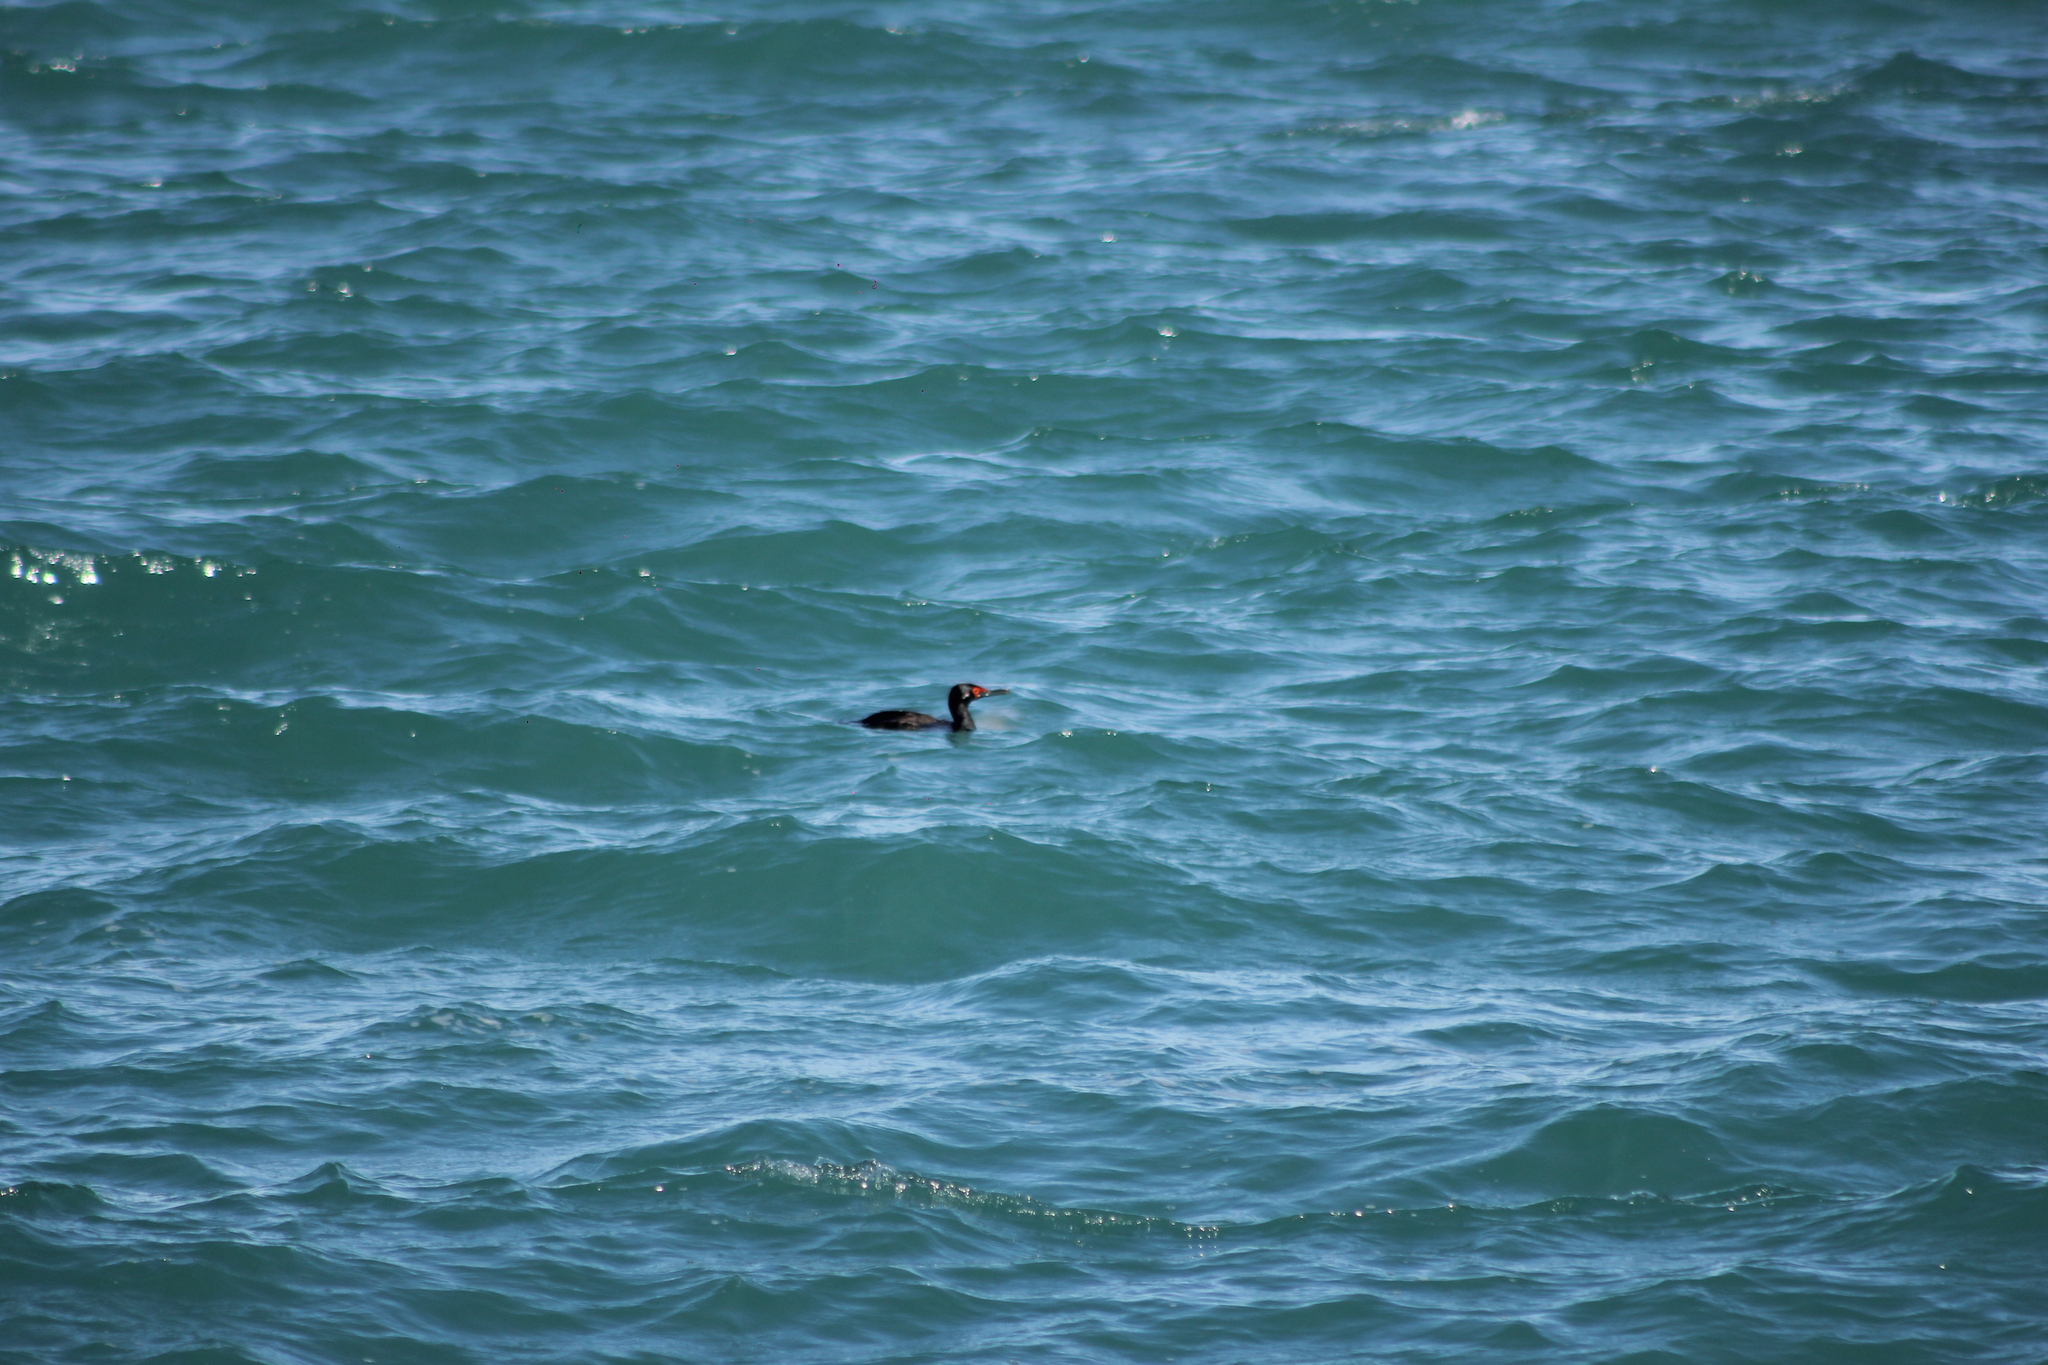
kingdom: Animalia
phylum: Chordata
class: Aves
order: Suliformes
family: Phalacrocoracidae
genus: Phalacrocorax
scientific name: Phalacrocorax magellanicus
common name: Rock shag
